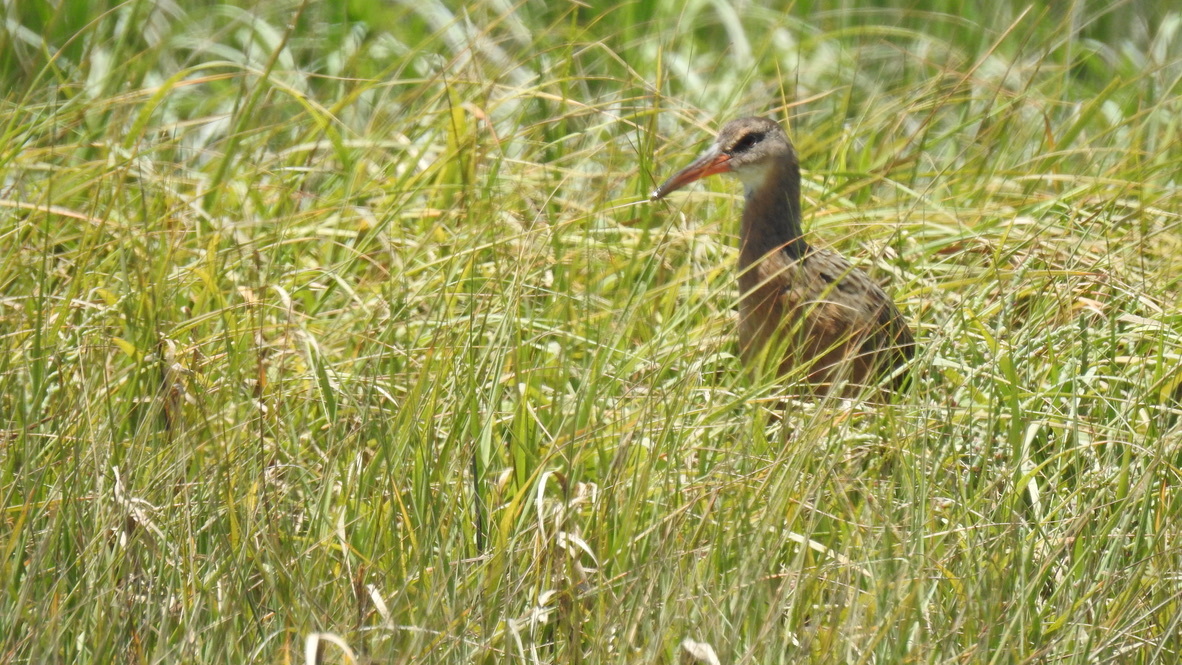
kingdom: Animalia
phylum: Chordata
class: Aves
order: Gruiformes
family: Rallidae
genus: Rallus
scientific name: Rallus obsoletus
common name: Ridgway's rail
